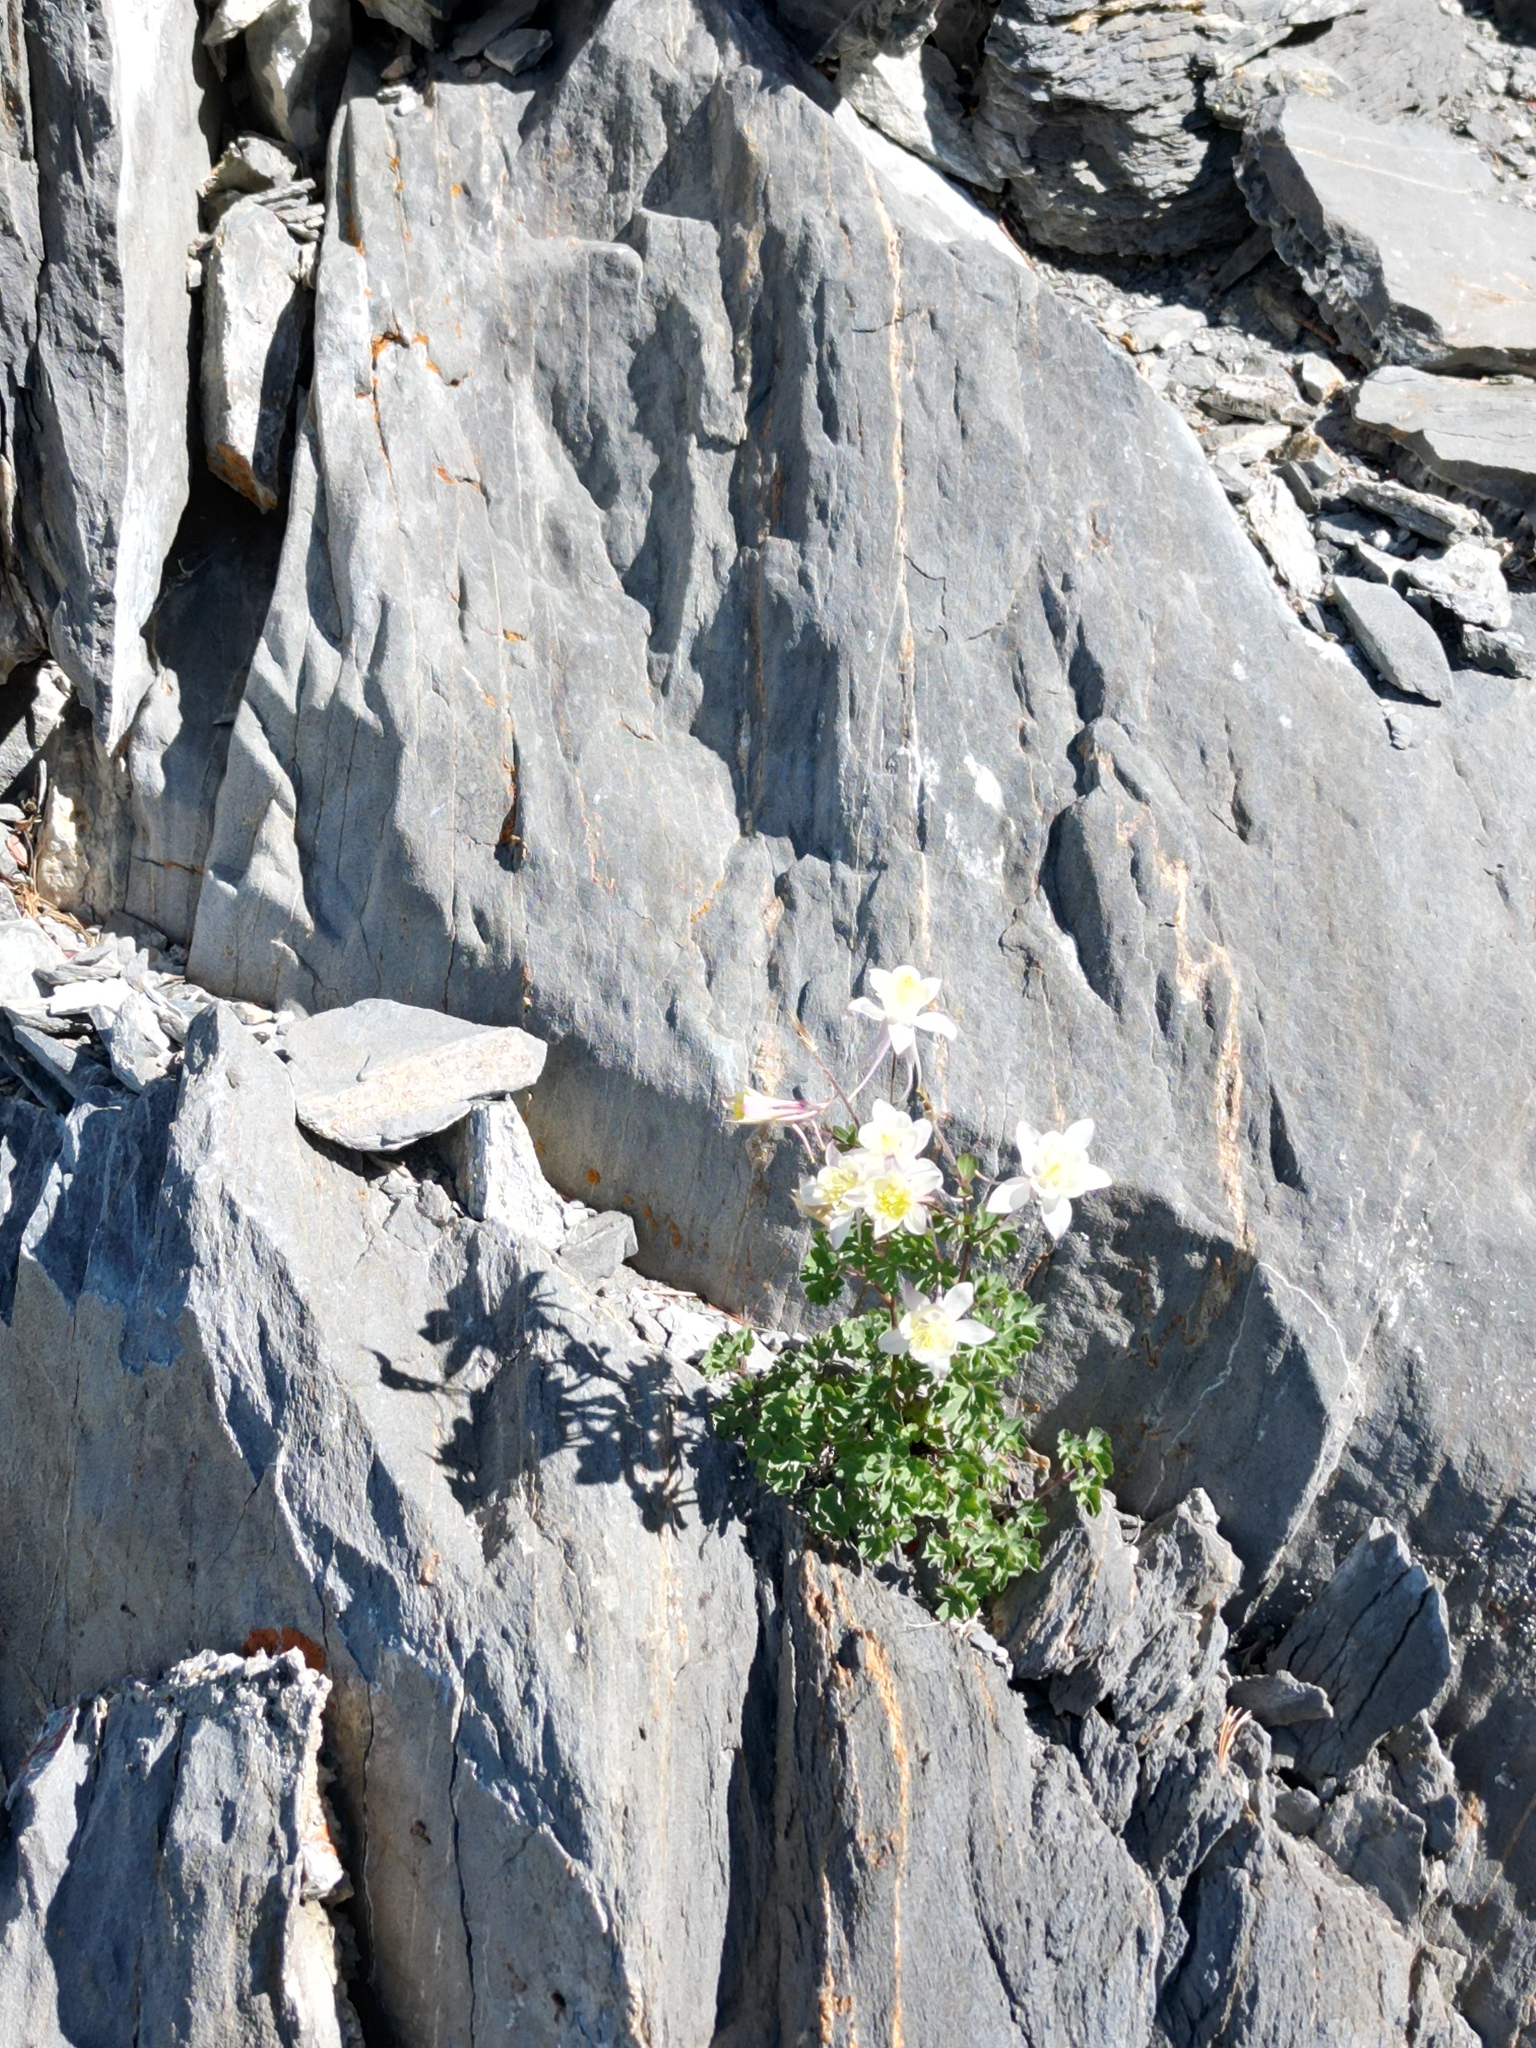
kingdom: Plantae
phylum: Tracheophyta
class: Magnoliopsida
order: Ranunculales
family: Ranunculaceae
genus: Aquilegia
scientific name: Aquilegia pubescens
